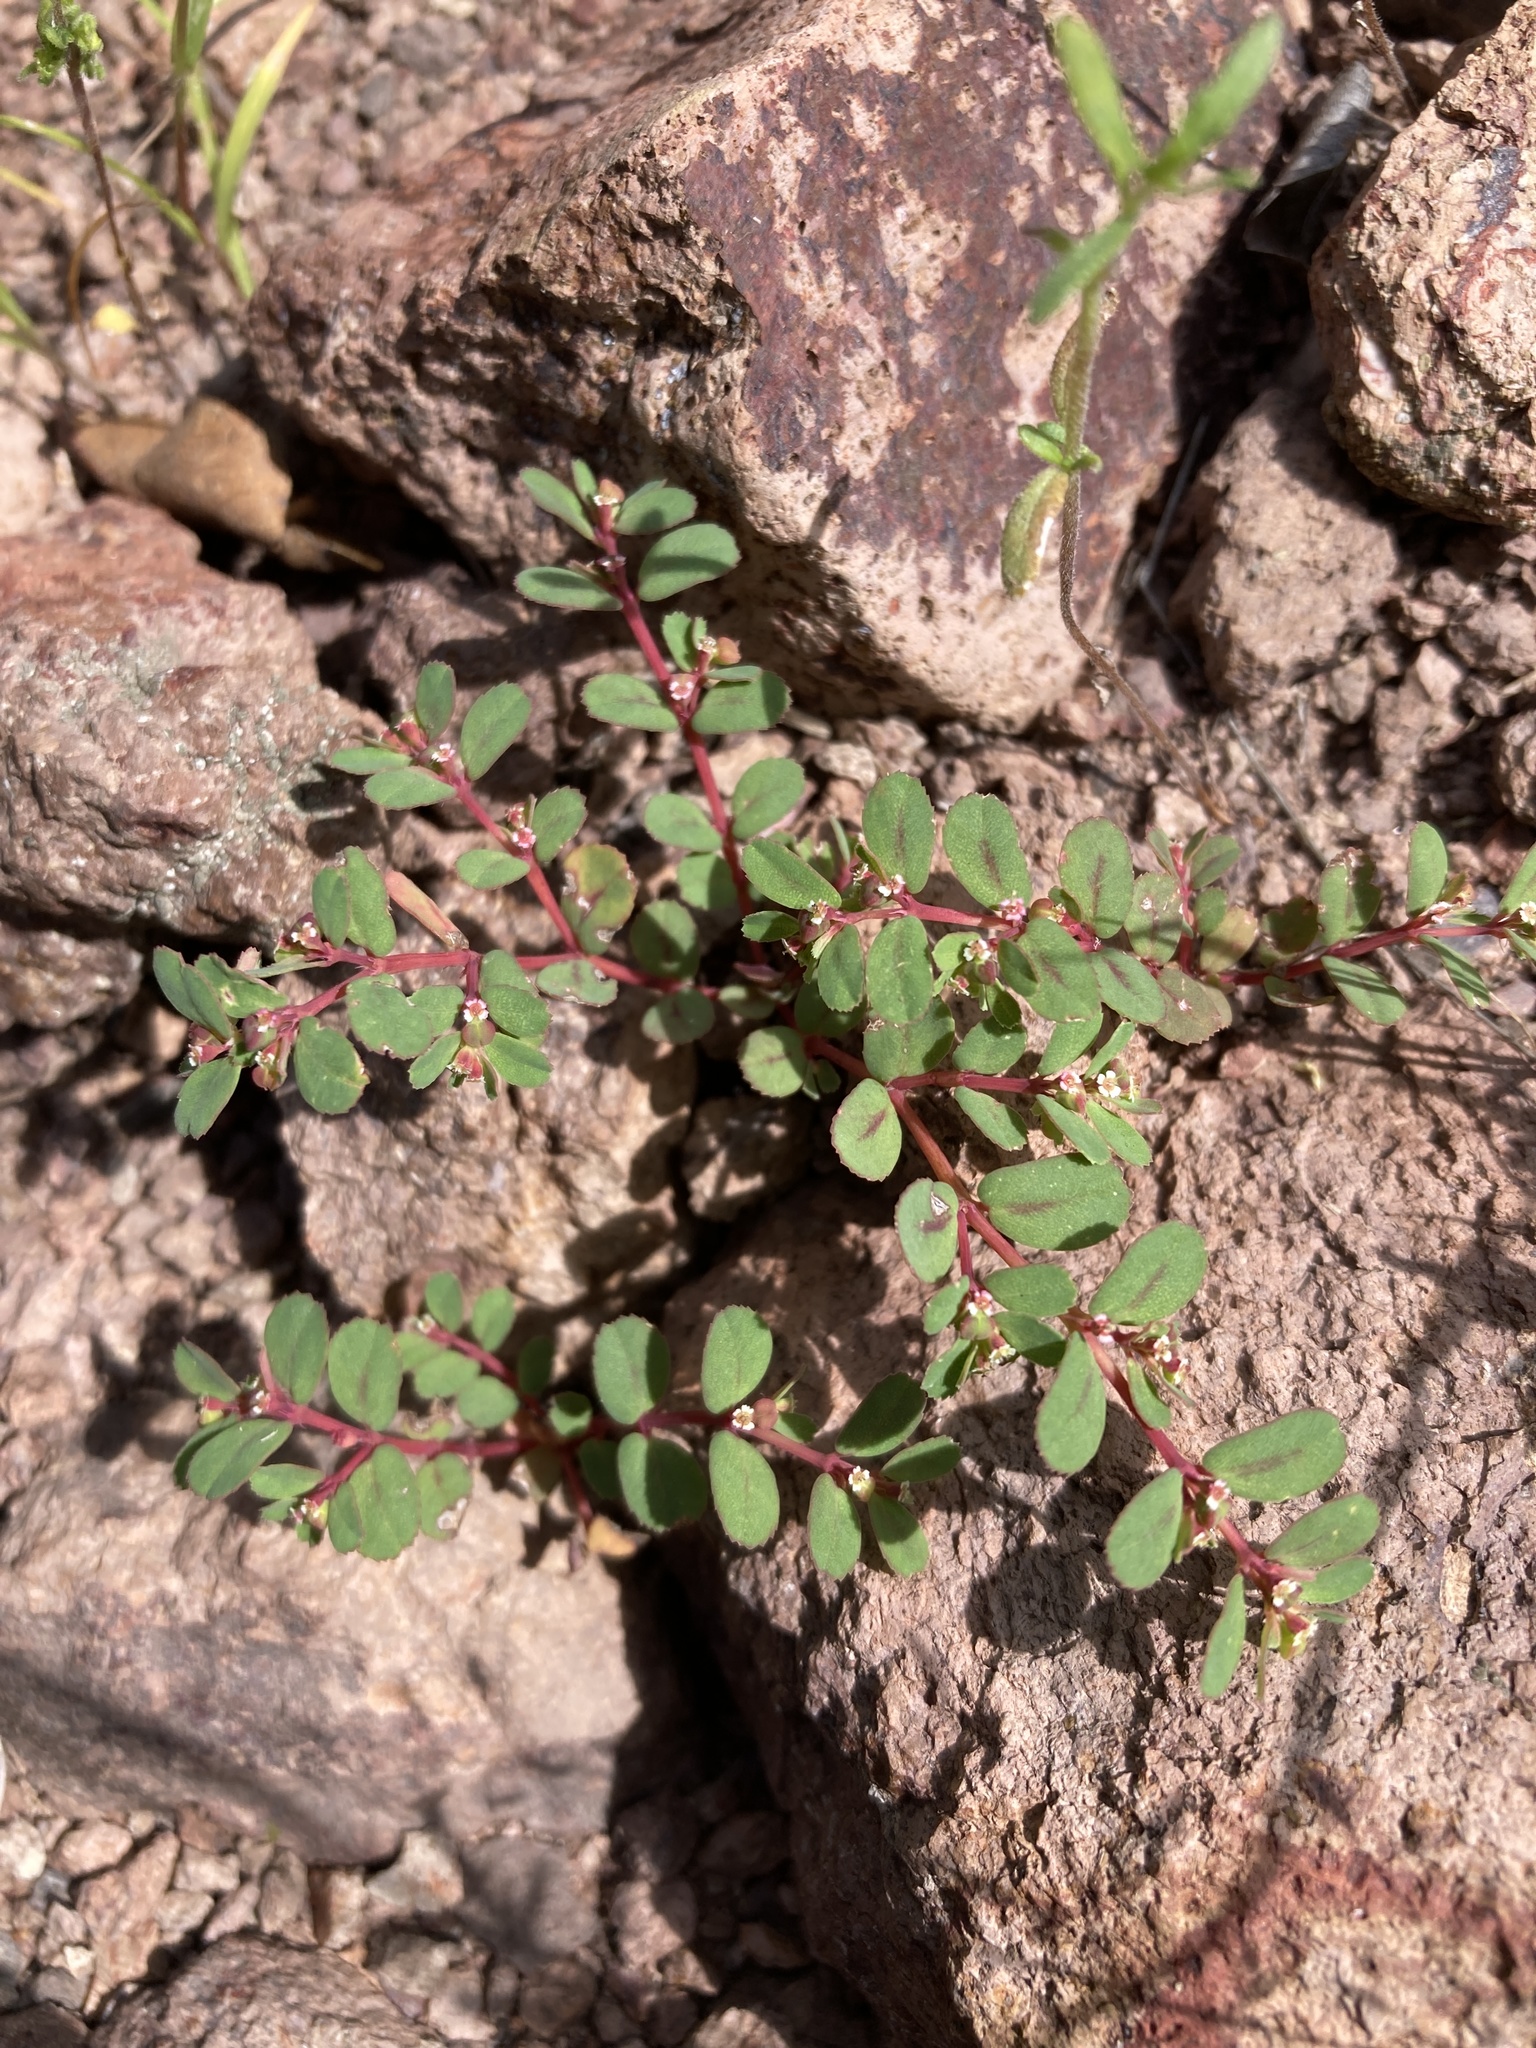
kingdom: Plantae
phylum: Tracheophyta
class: Magnoliopsida
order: Malpighiales
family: Euphorbiaceae
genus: Euphorbia
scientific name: Euphorbia serpillifolia
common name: Thyme-leaf spurge
